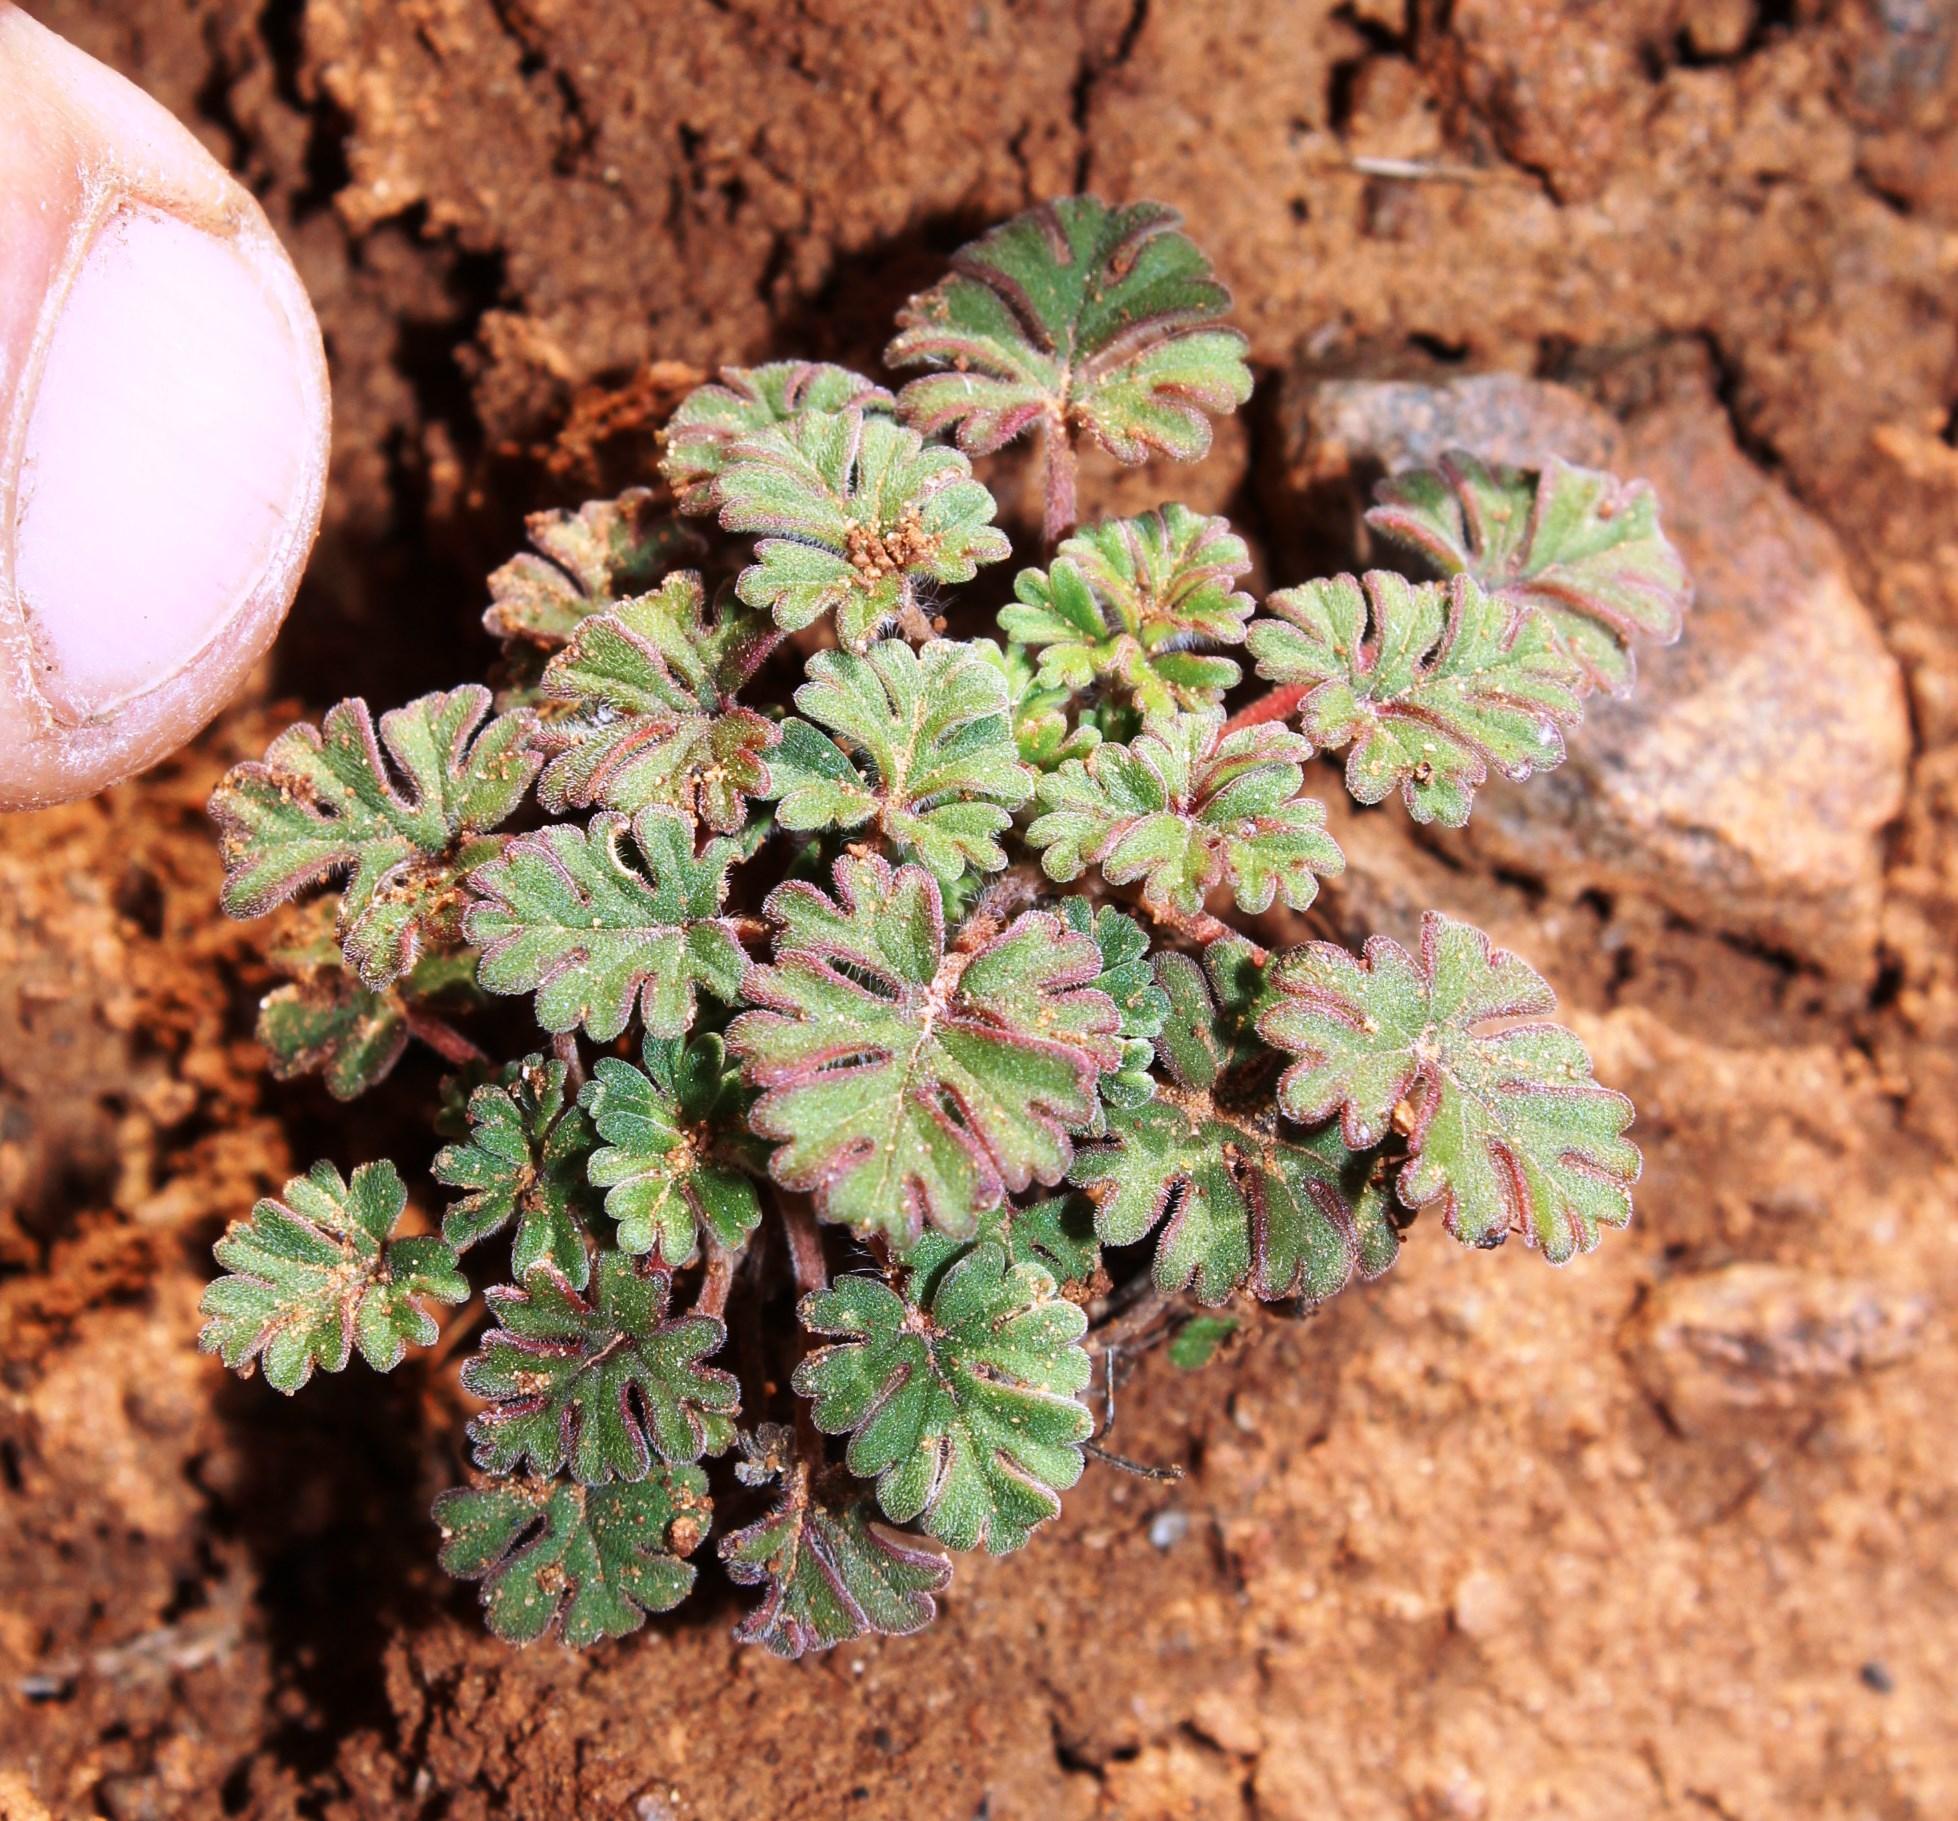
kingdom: Plantae
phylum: Tracheophyta
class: Magnoliopsida
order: Geraniales
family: Geraniaceae
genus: Pelargonium
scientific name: Pelargonium minimum
